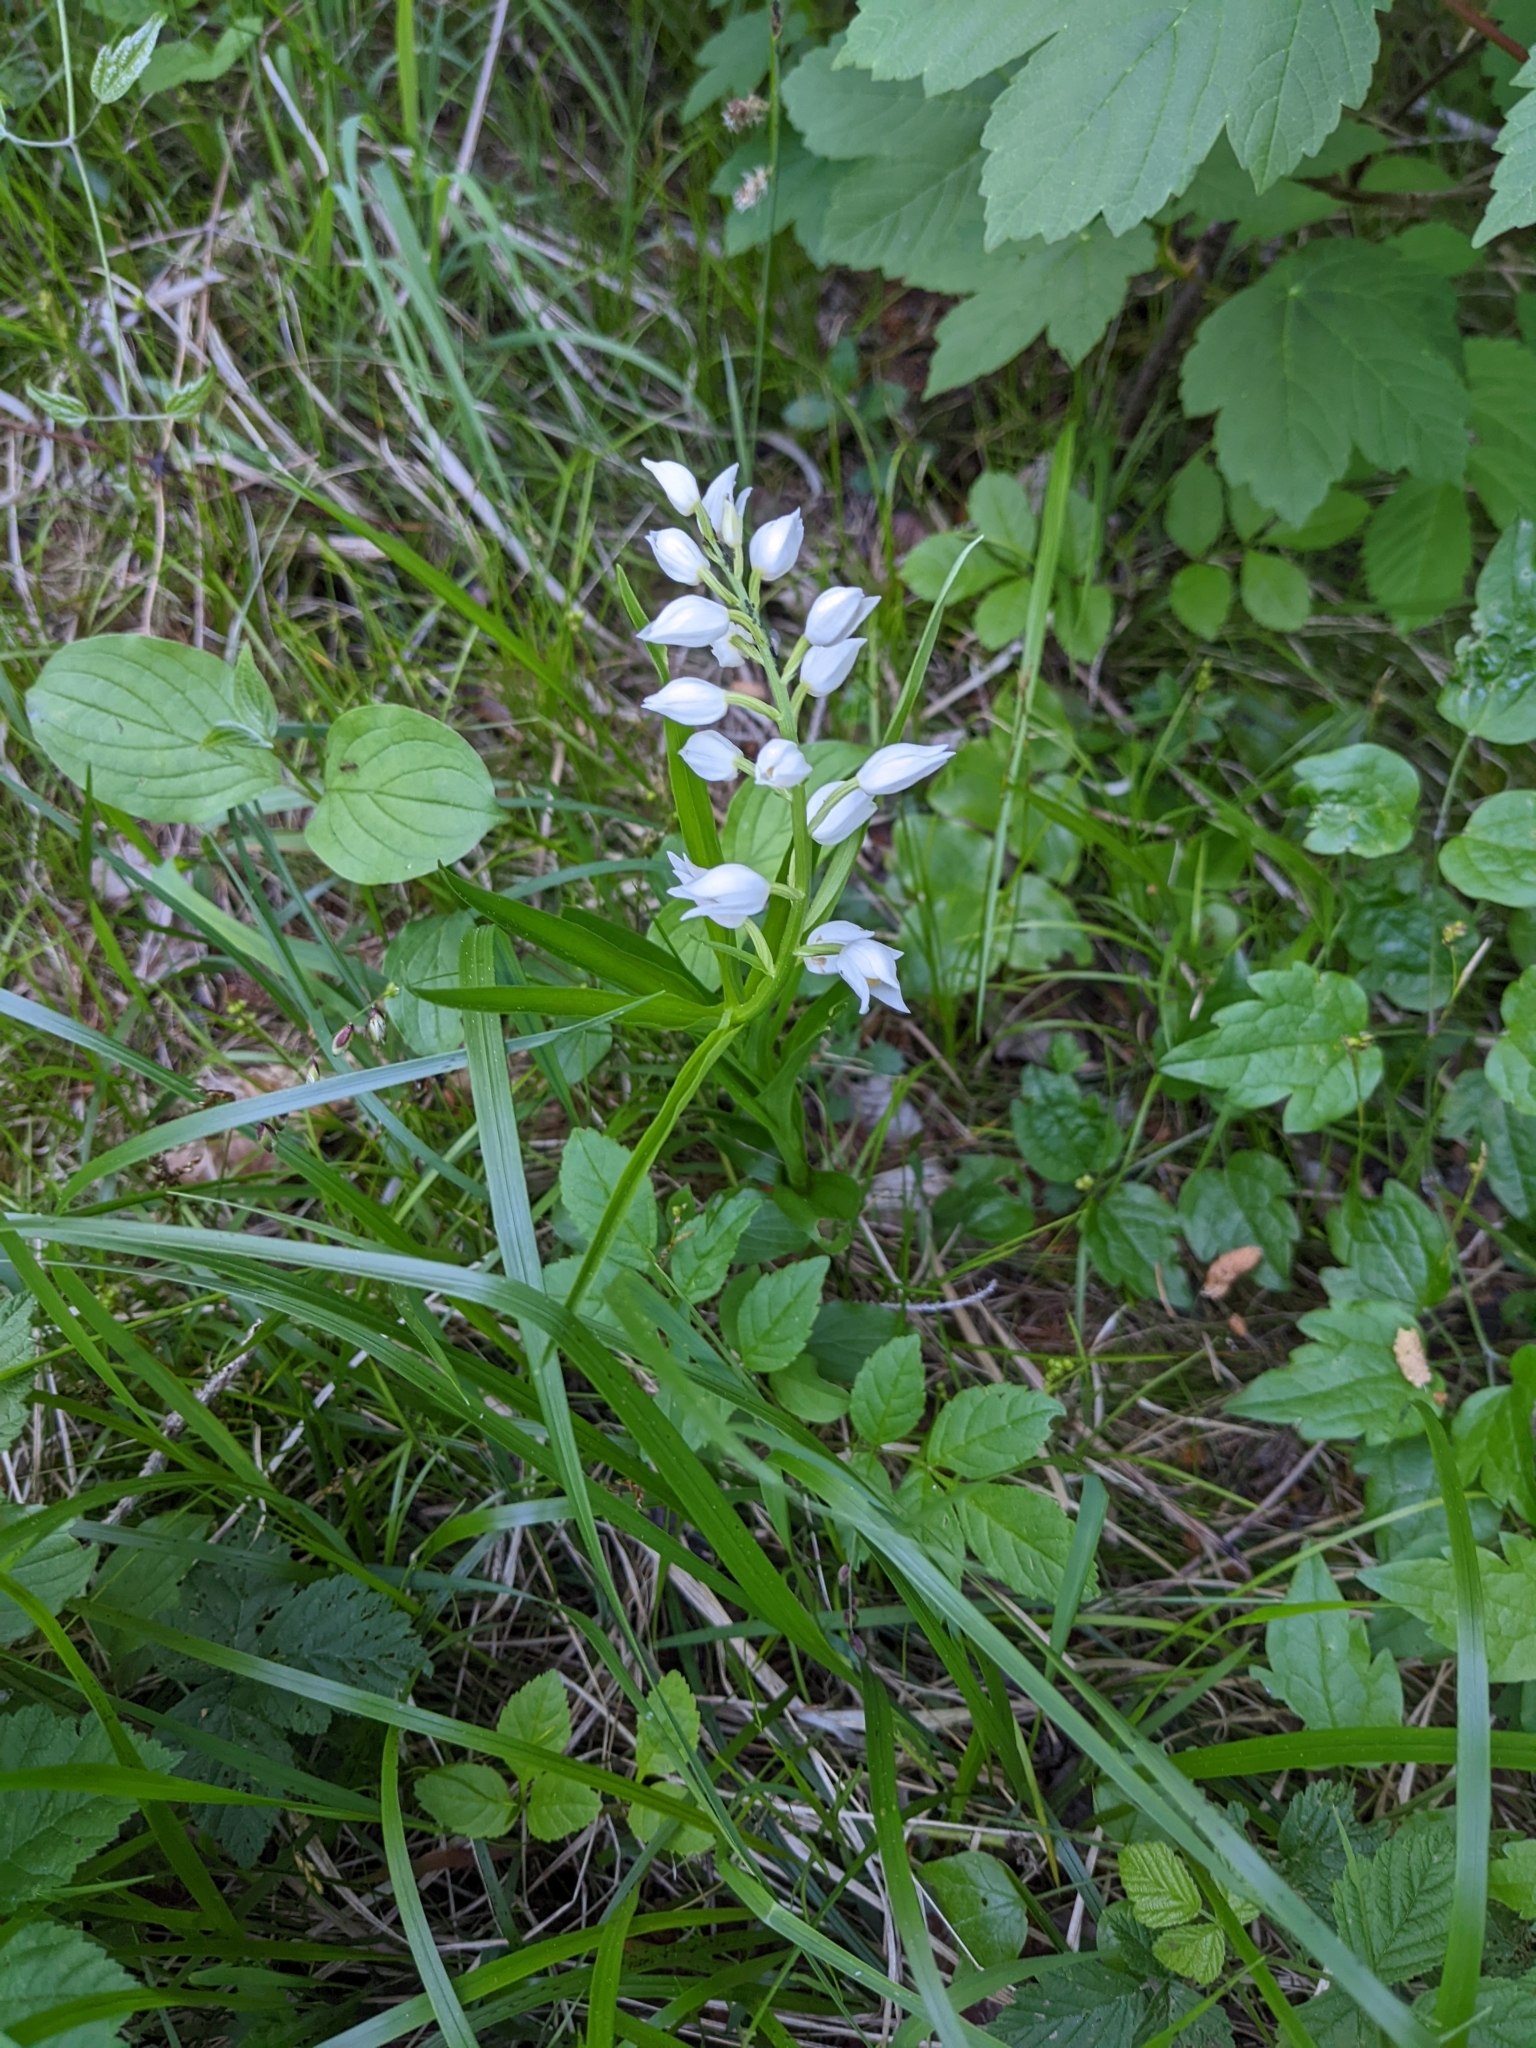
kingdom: Plantae
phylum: Tracheophyta
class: Liliopsida
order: Asparagales
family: Orchidaceae
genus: Cephalanthera
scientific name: Cephalanthera longifolia
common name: Narrow-leaved helleborine
